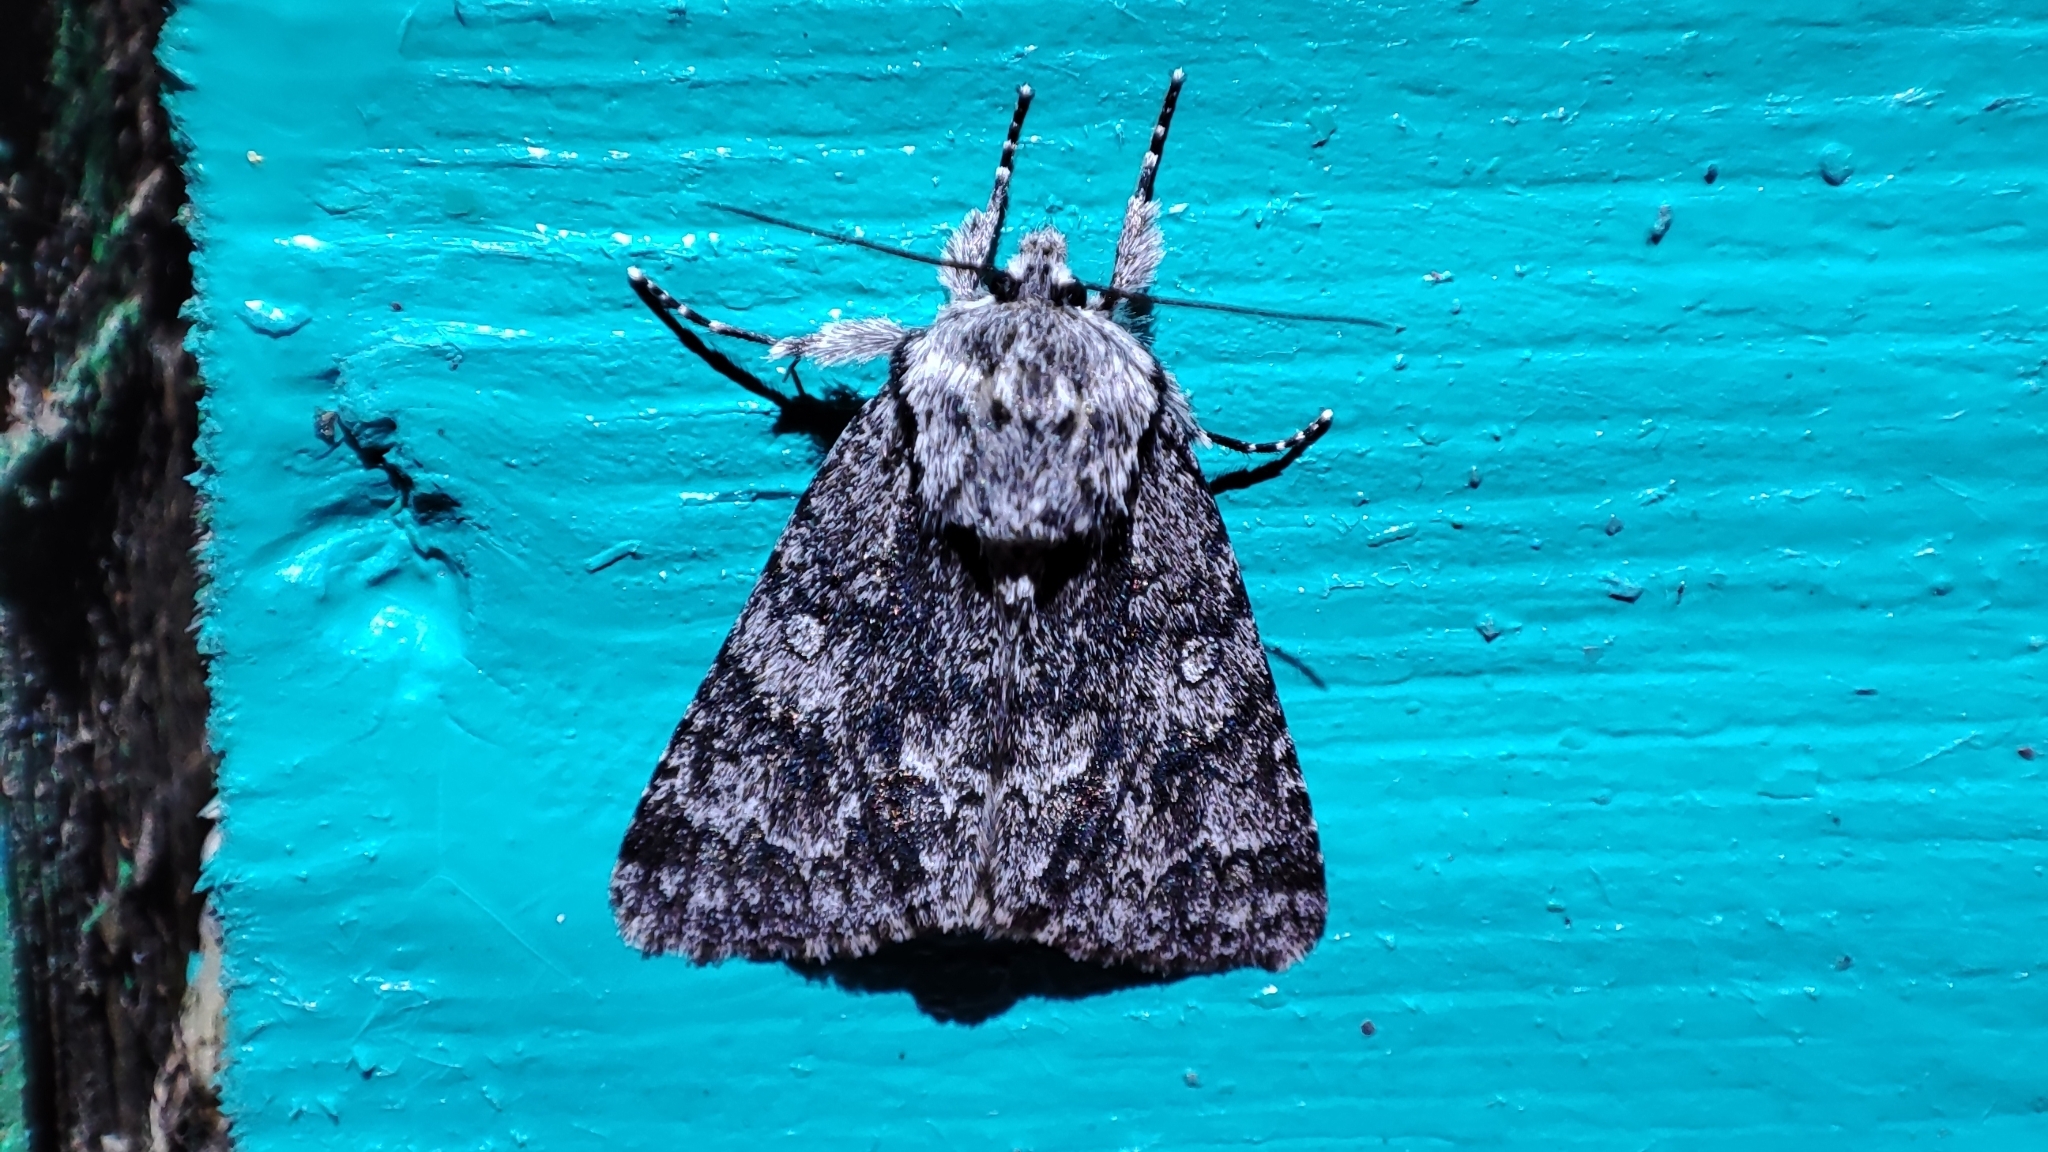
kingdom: Animalia
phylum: Arthropoda
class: Insecta
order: Lepidoptera
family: Noctuidae
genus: Acronicta
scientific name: Acronicta rumicis
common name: Knot grass
